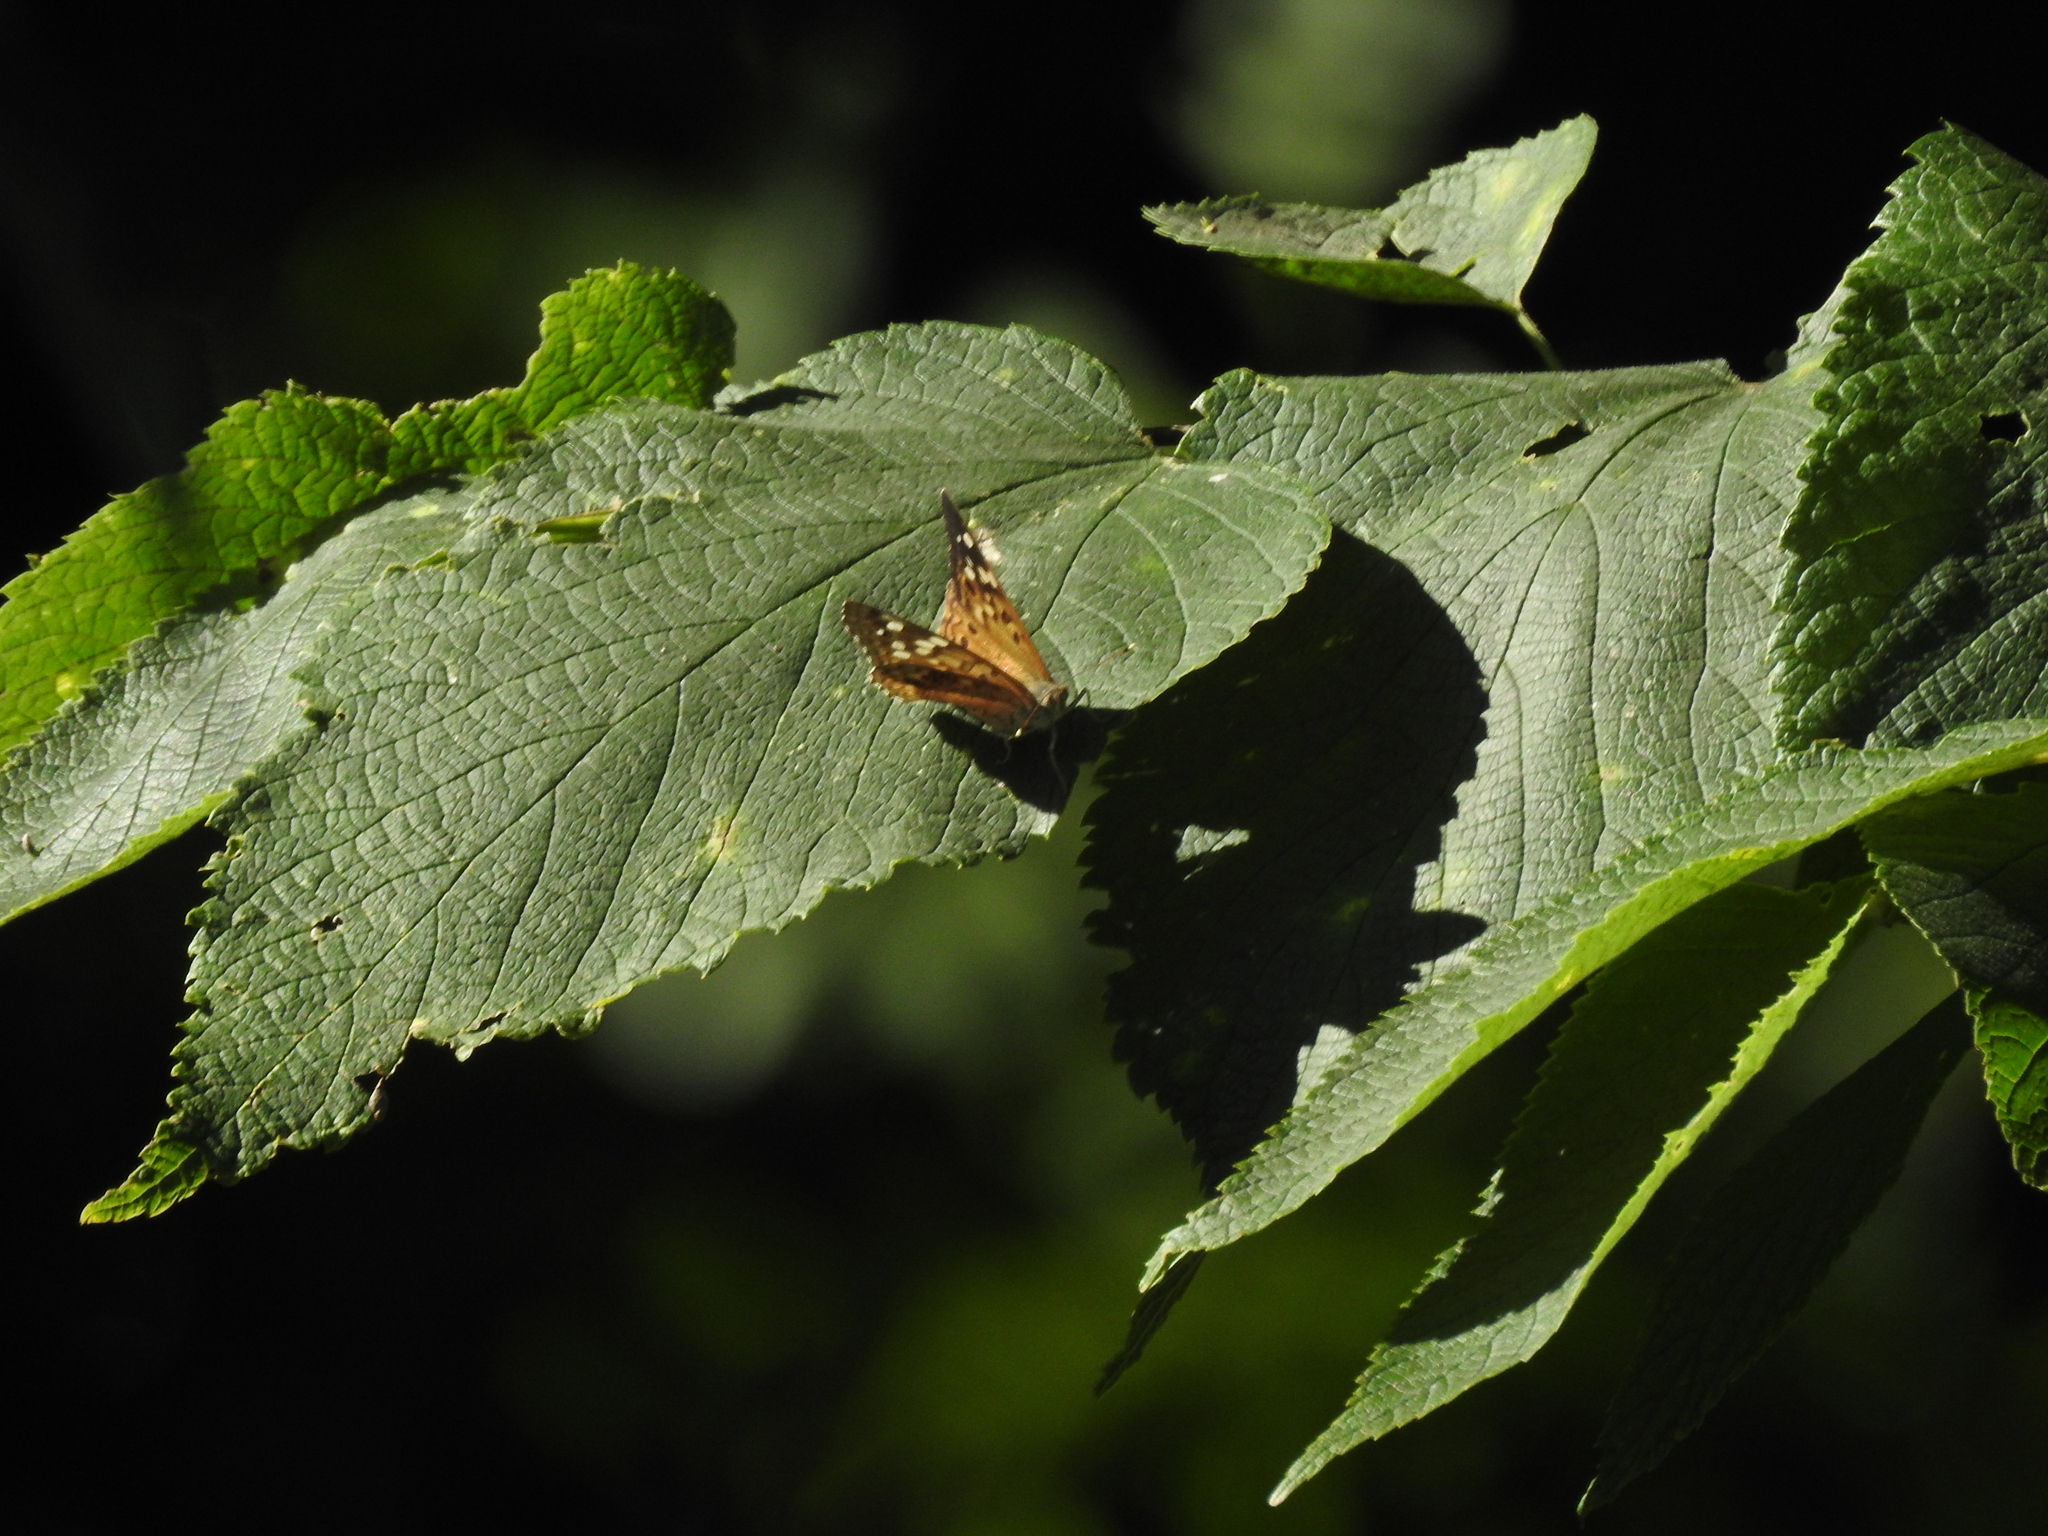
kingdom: Animalia
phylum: Arthropoda
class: Insecta
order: Lepidoptera
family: Nymphalidae
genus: Asterocampa
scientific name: Asterocampa celtis
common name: Hackberry emperor
